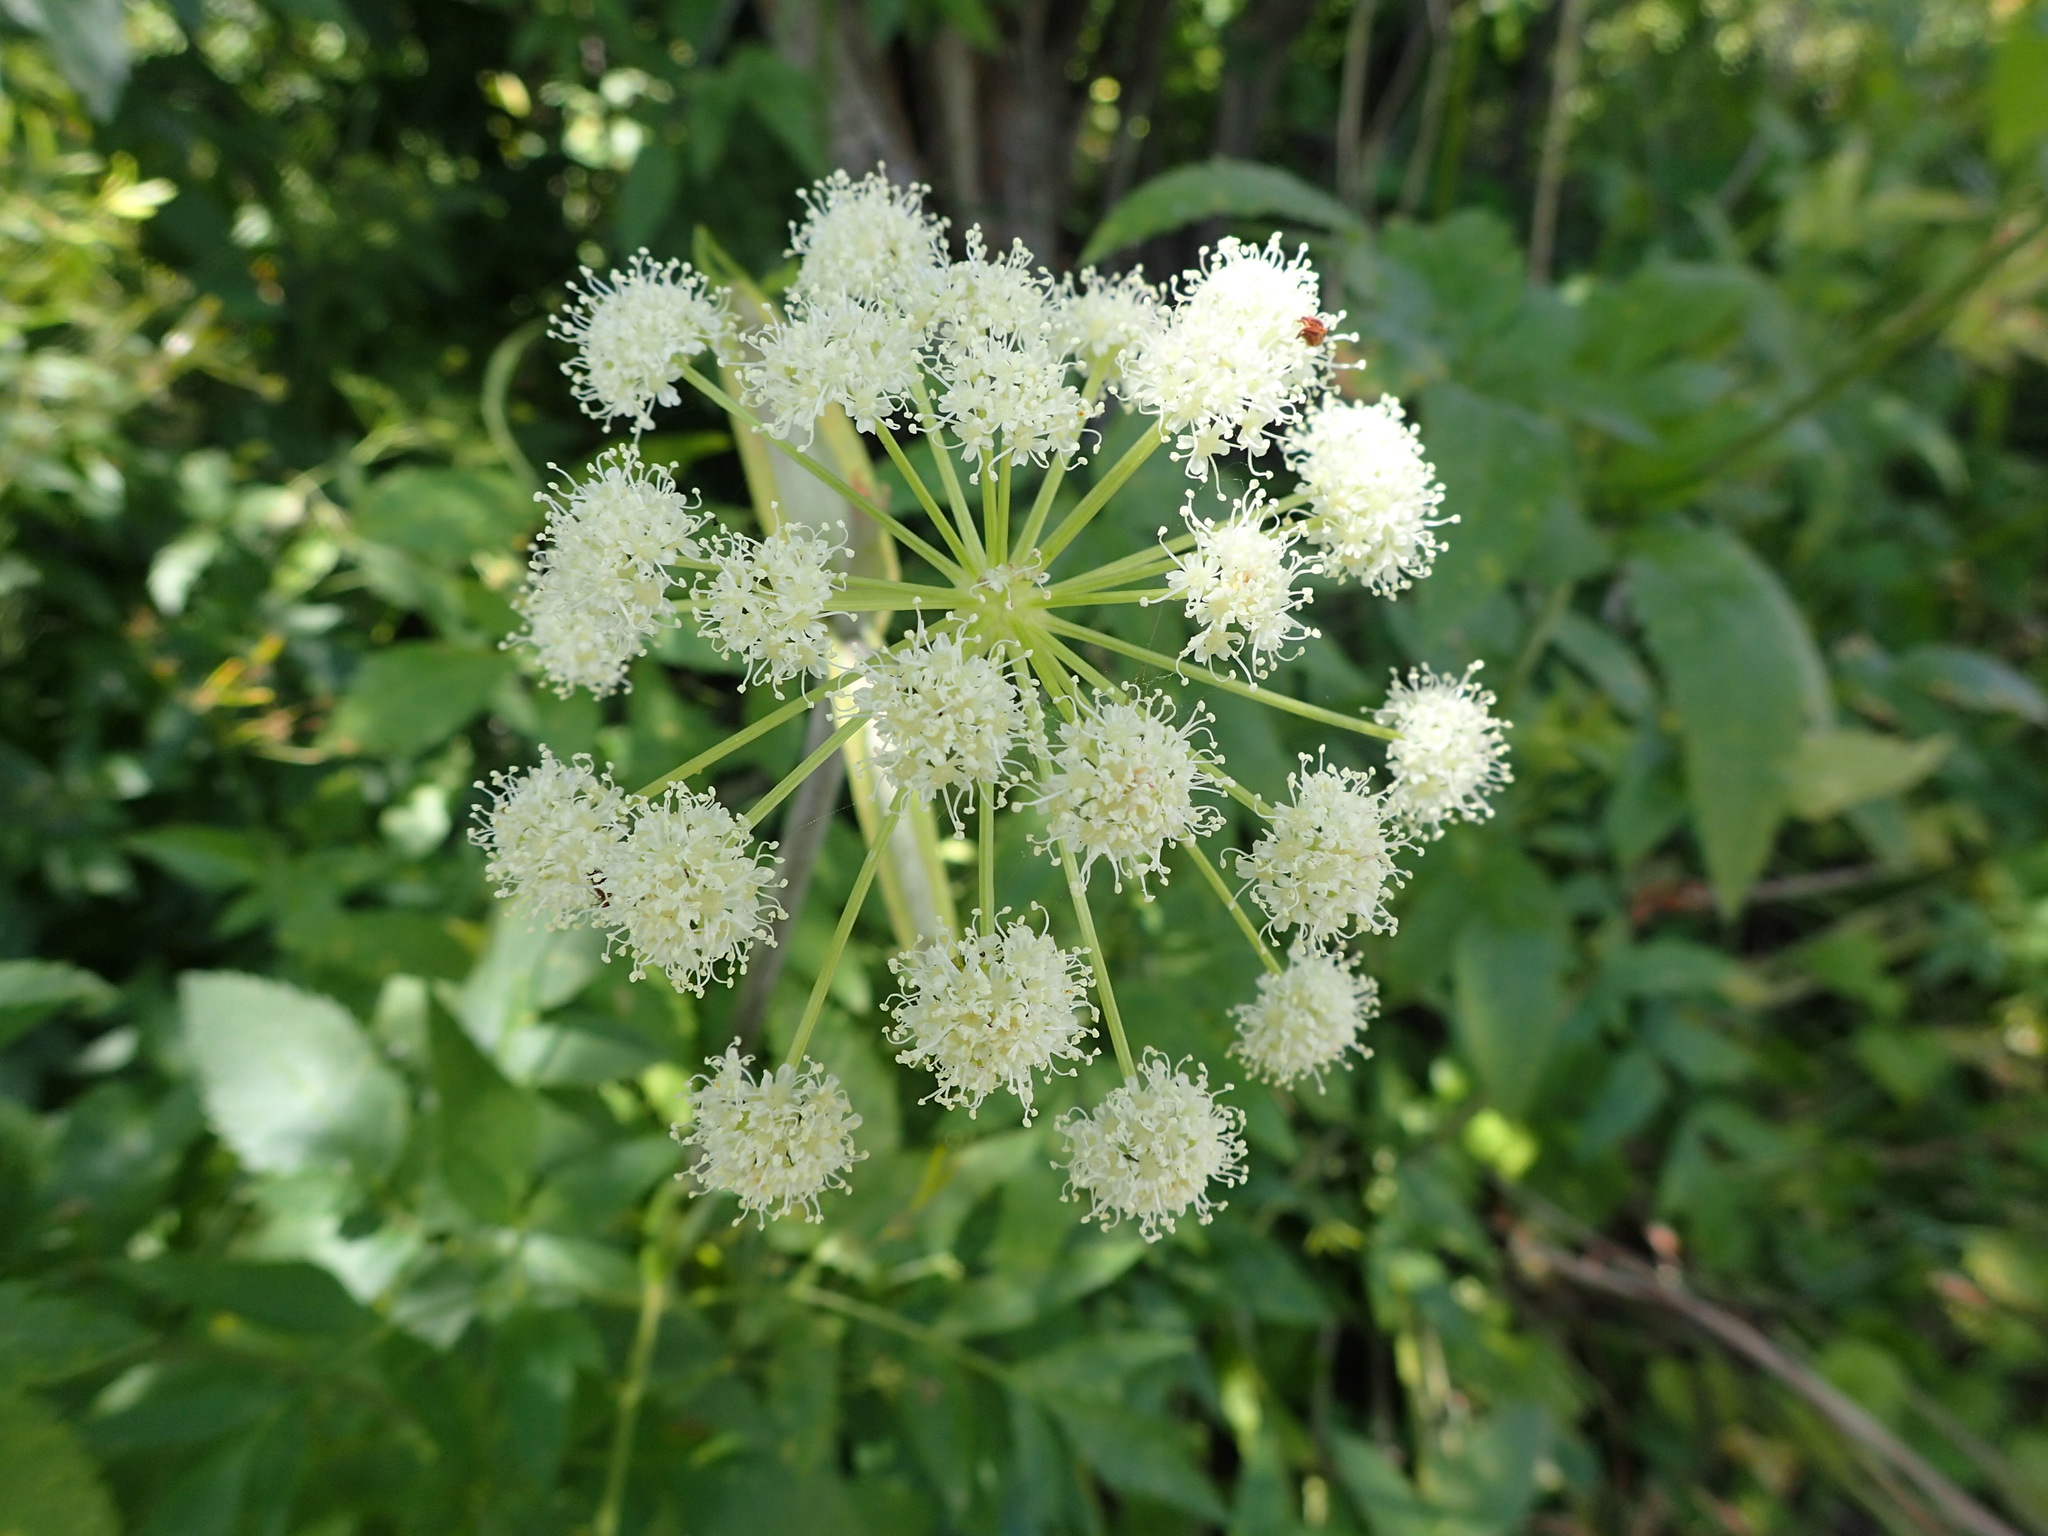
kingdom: Plantae
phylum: Tracheophyta
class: Magnoliopsida
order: Apiales
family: Apiaceae
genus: Angelica
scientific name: Angelica arguta
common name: Lyall's angelica
